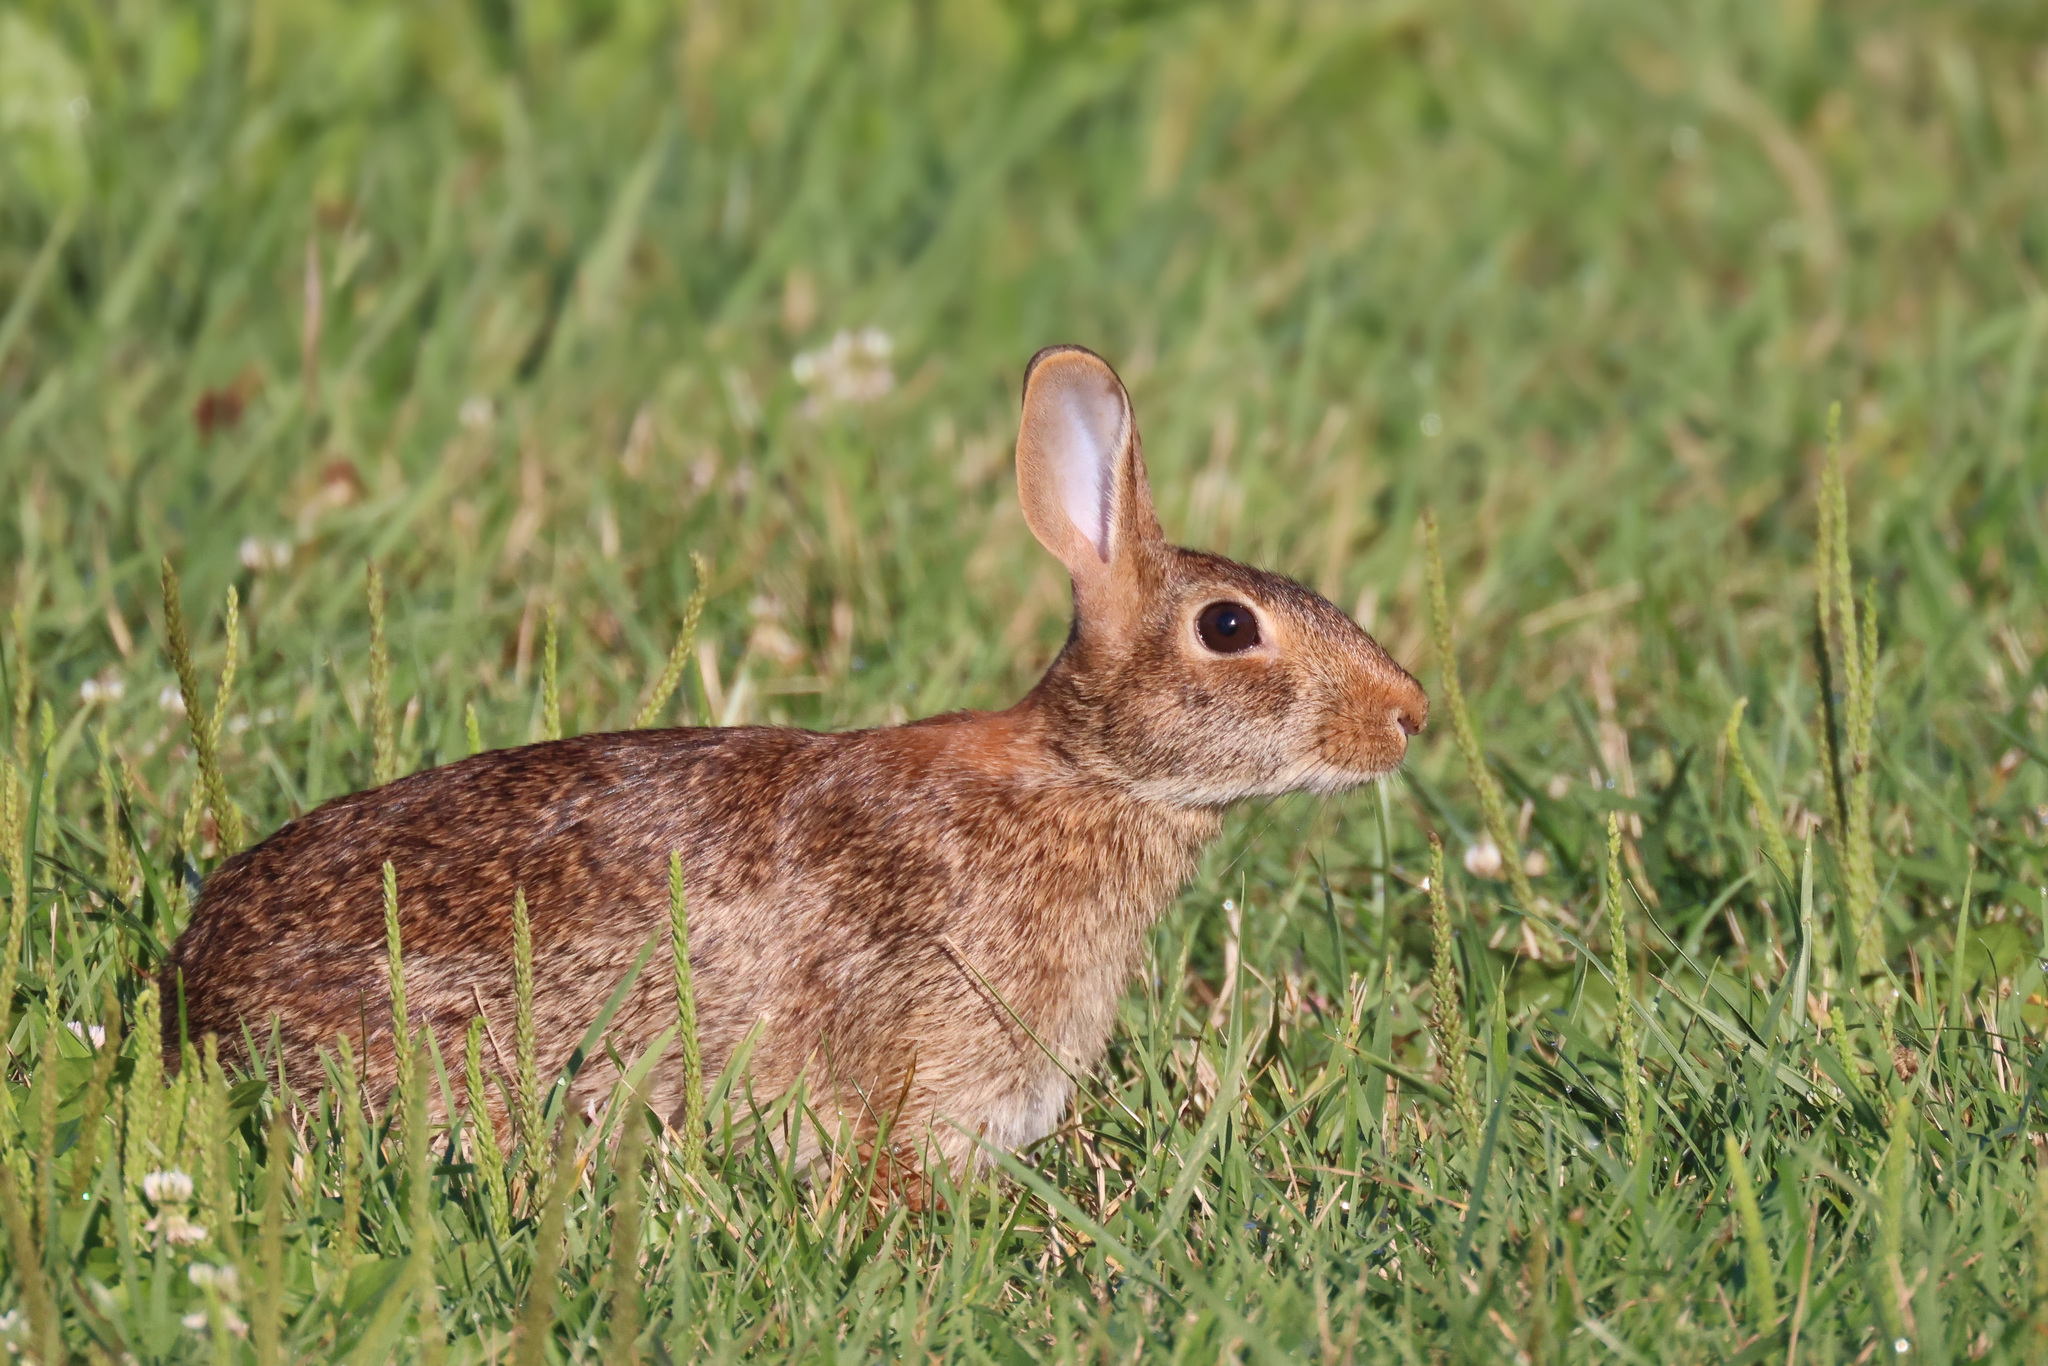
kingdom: Animalia
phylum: Chordata
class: Mammalia
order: Lagomorpha
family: Leporidae
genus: Sylvilagus
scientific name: Sylvilagus floridanus
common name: Eastern cottontail
